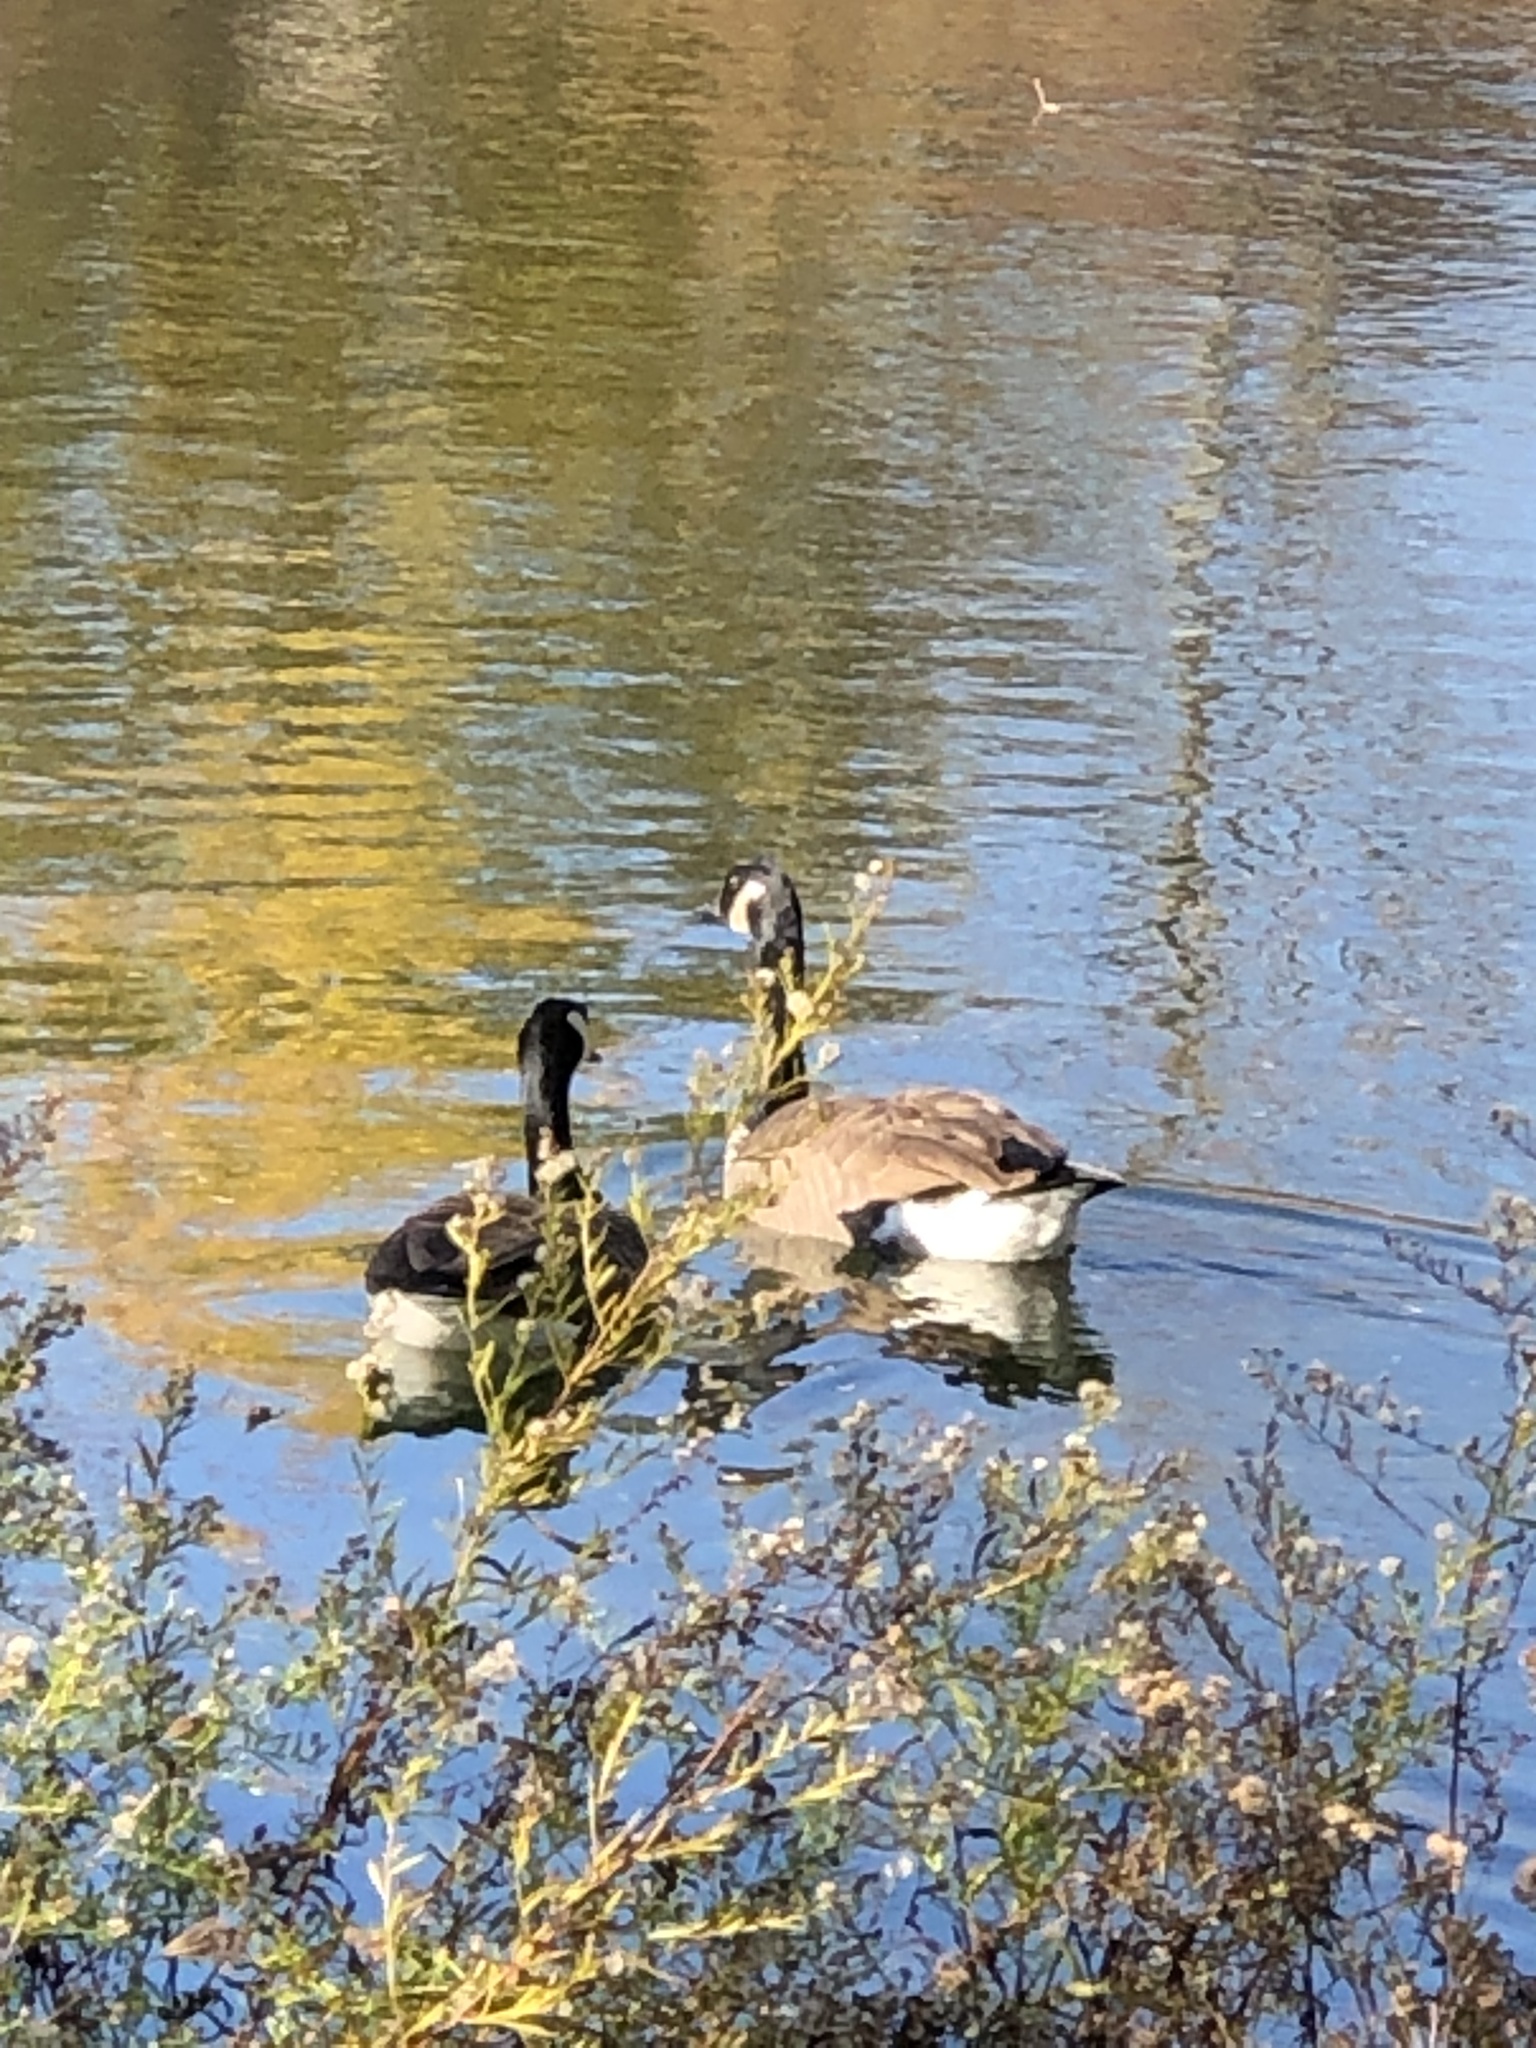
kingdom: Animalia
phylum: Chordata
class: Aves
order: Anseriformes
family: Anatidae
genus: Branta
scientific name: Branta canadensis
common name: Canada goose
